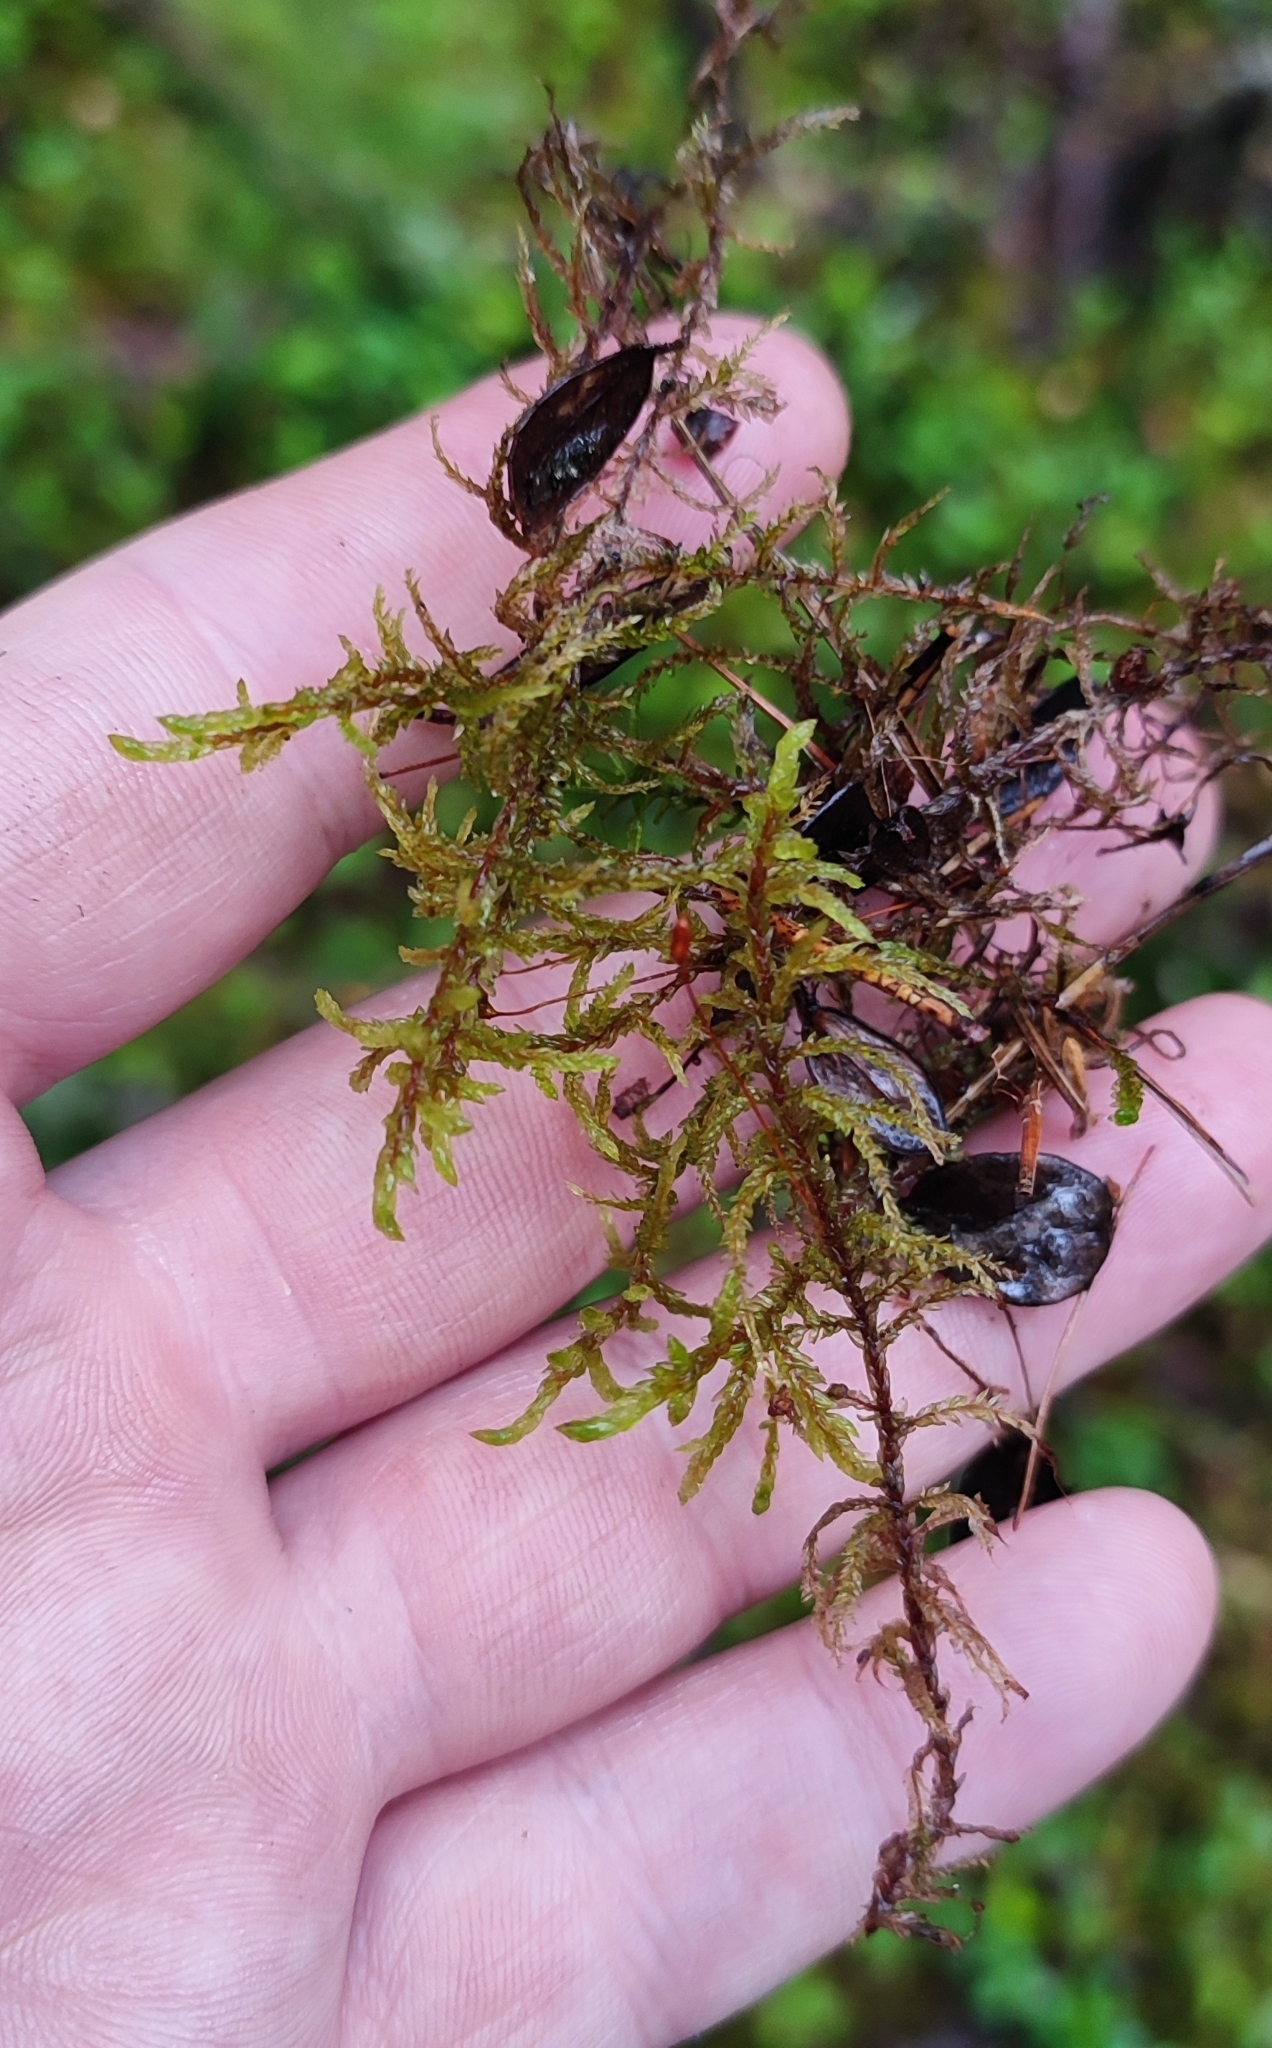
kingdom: Plantae
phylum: Bryophyta
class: Bryopsida
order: Hypnales
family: Hylocomiaceae
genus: Pleurozium
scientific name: Pleurozium schreberi
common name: Red-stemmed feather moss
